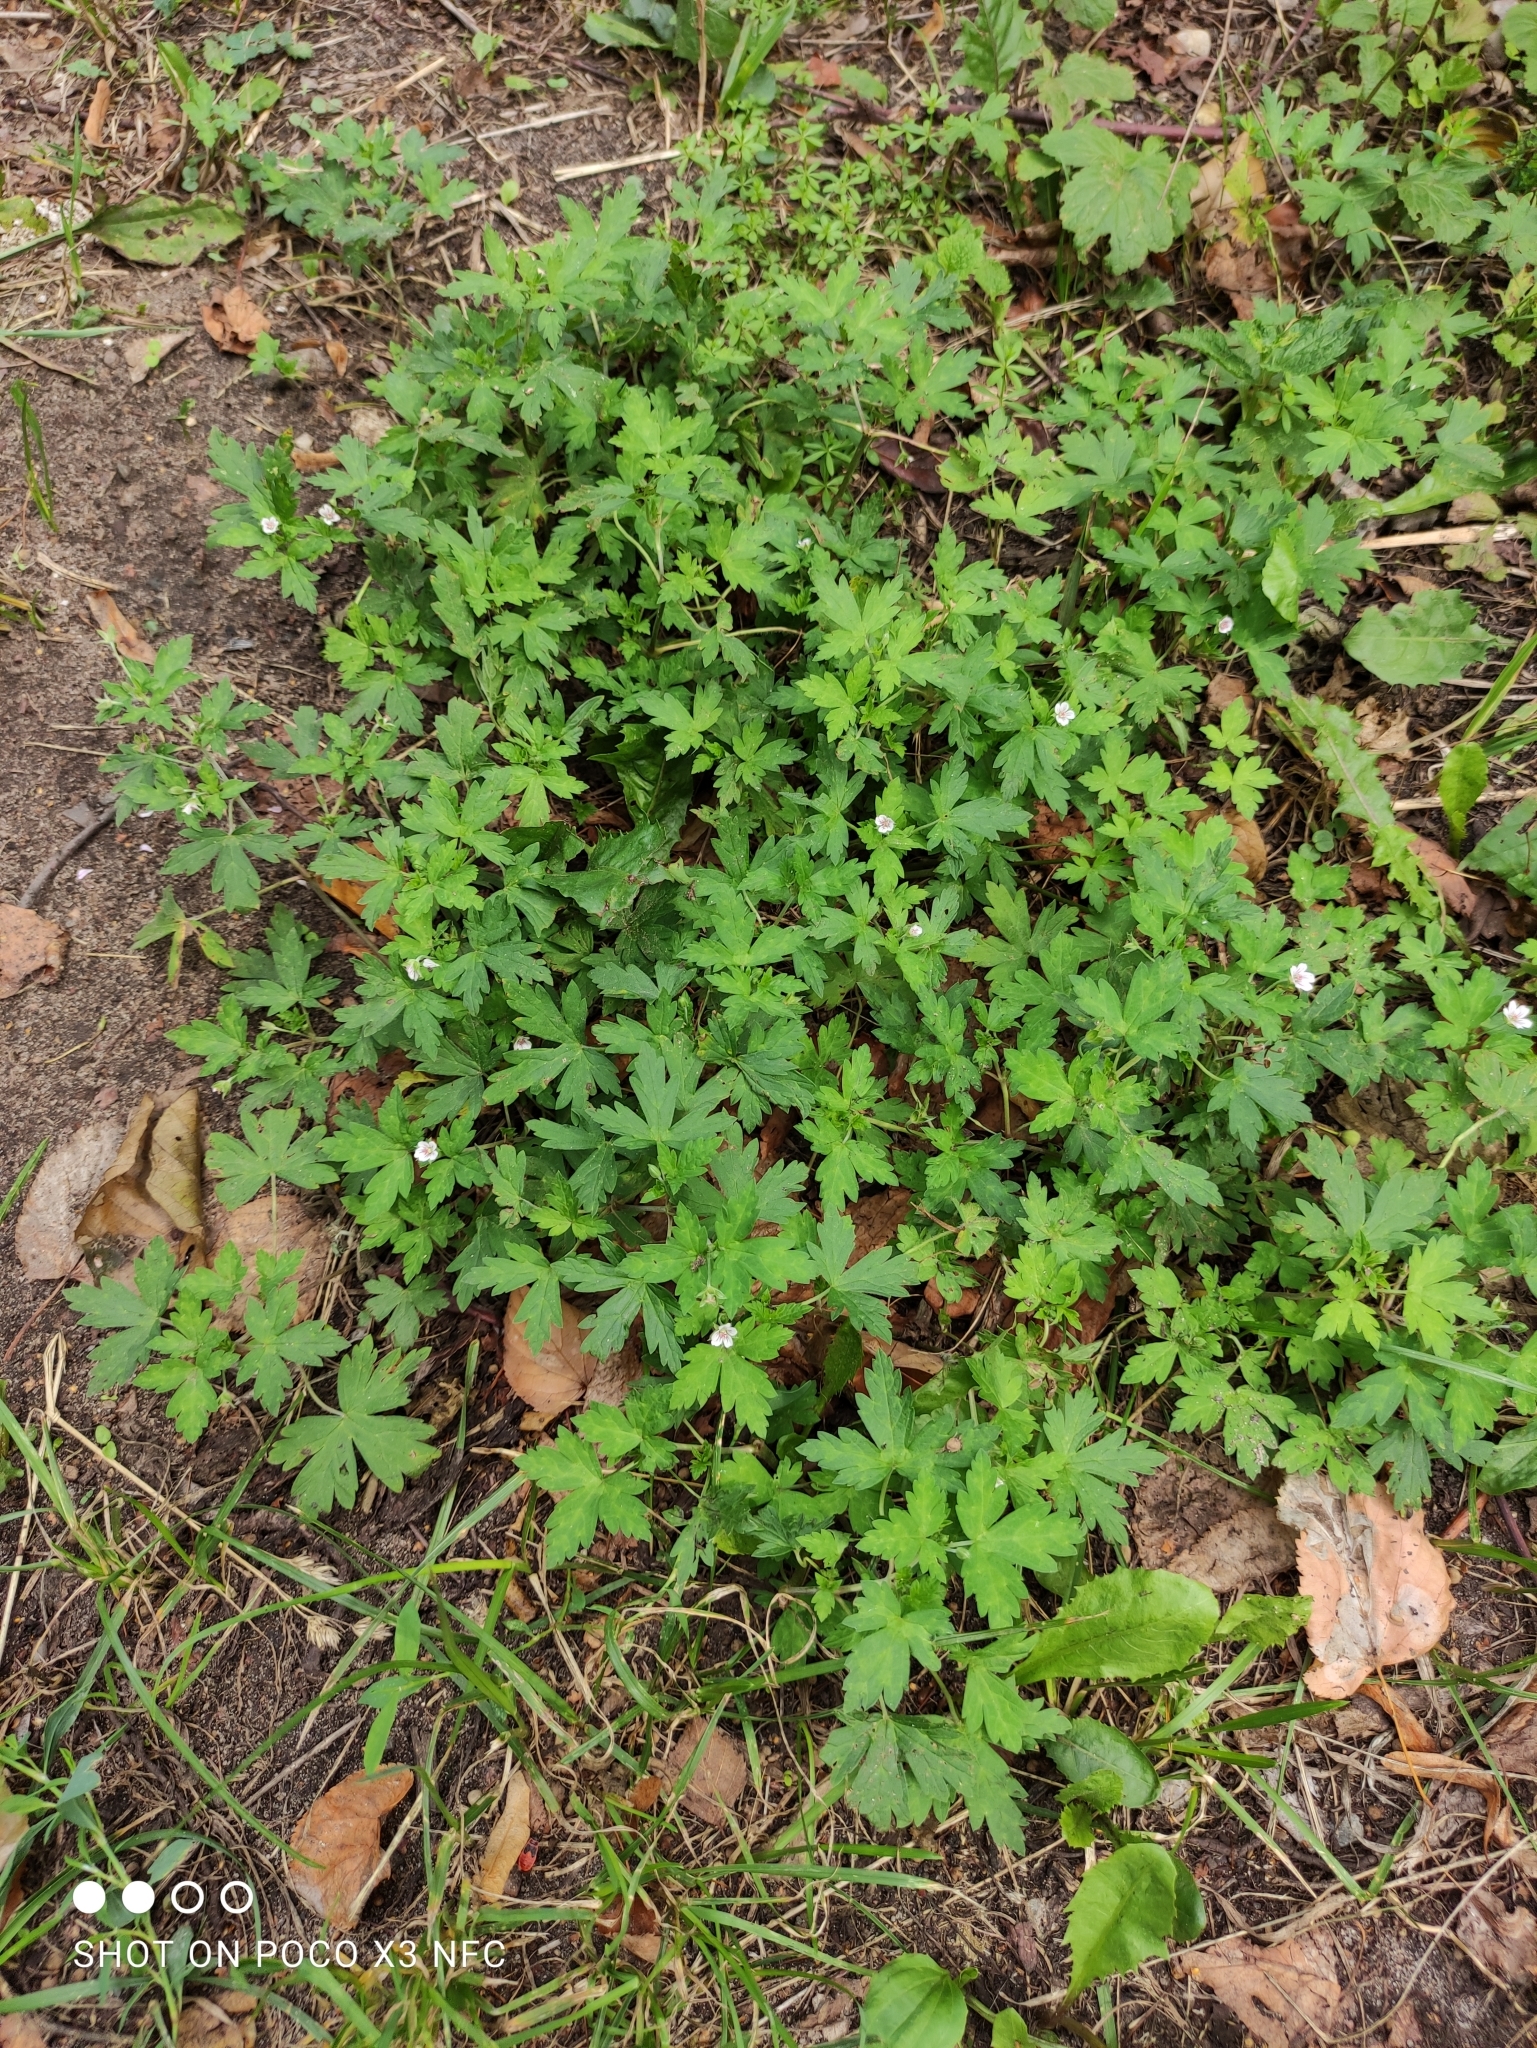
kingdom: Plantae
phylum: Tracheophyta
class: Magnoliopsida
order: Geraniales
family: Geraniaceae
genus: Geranium
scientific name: Geranium sibiricum
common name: Siberian crane's-bill
